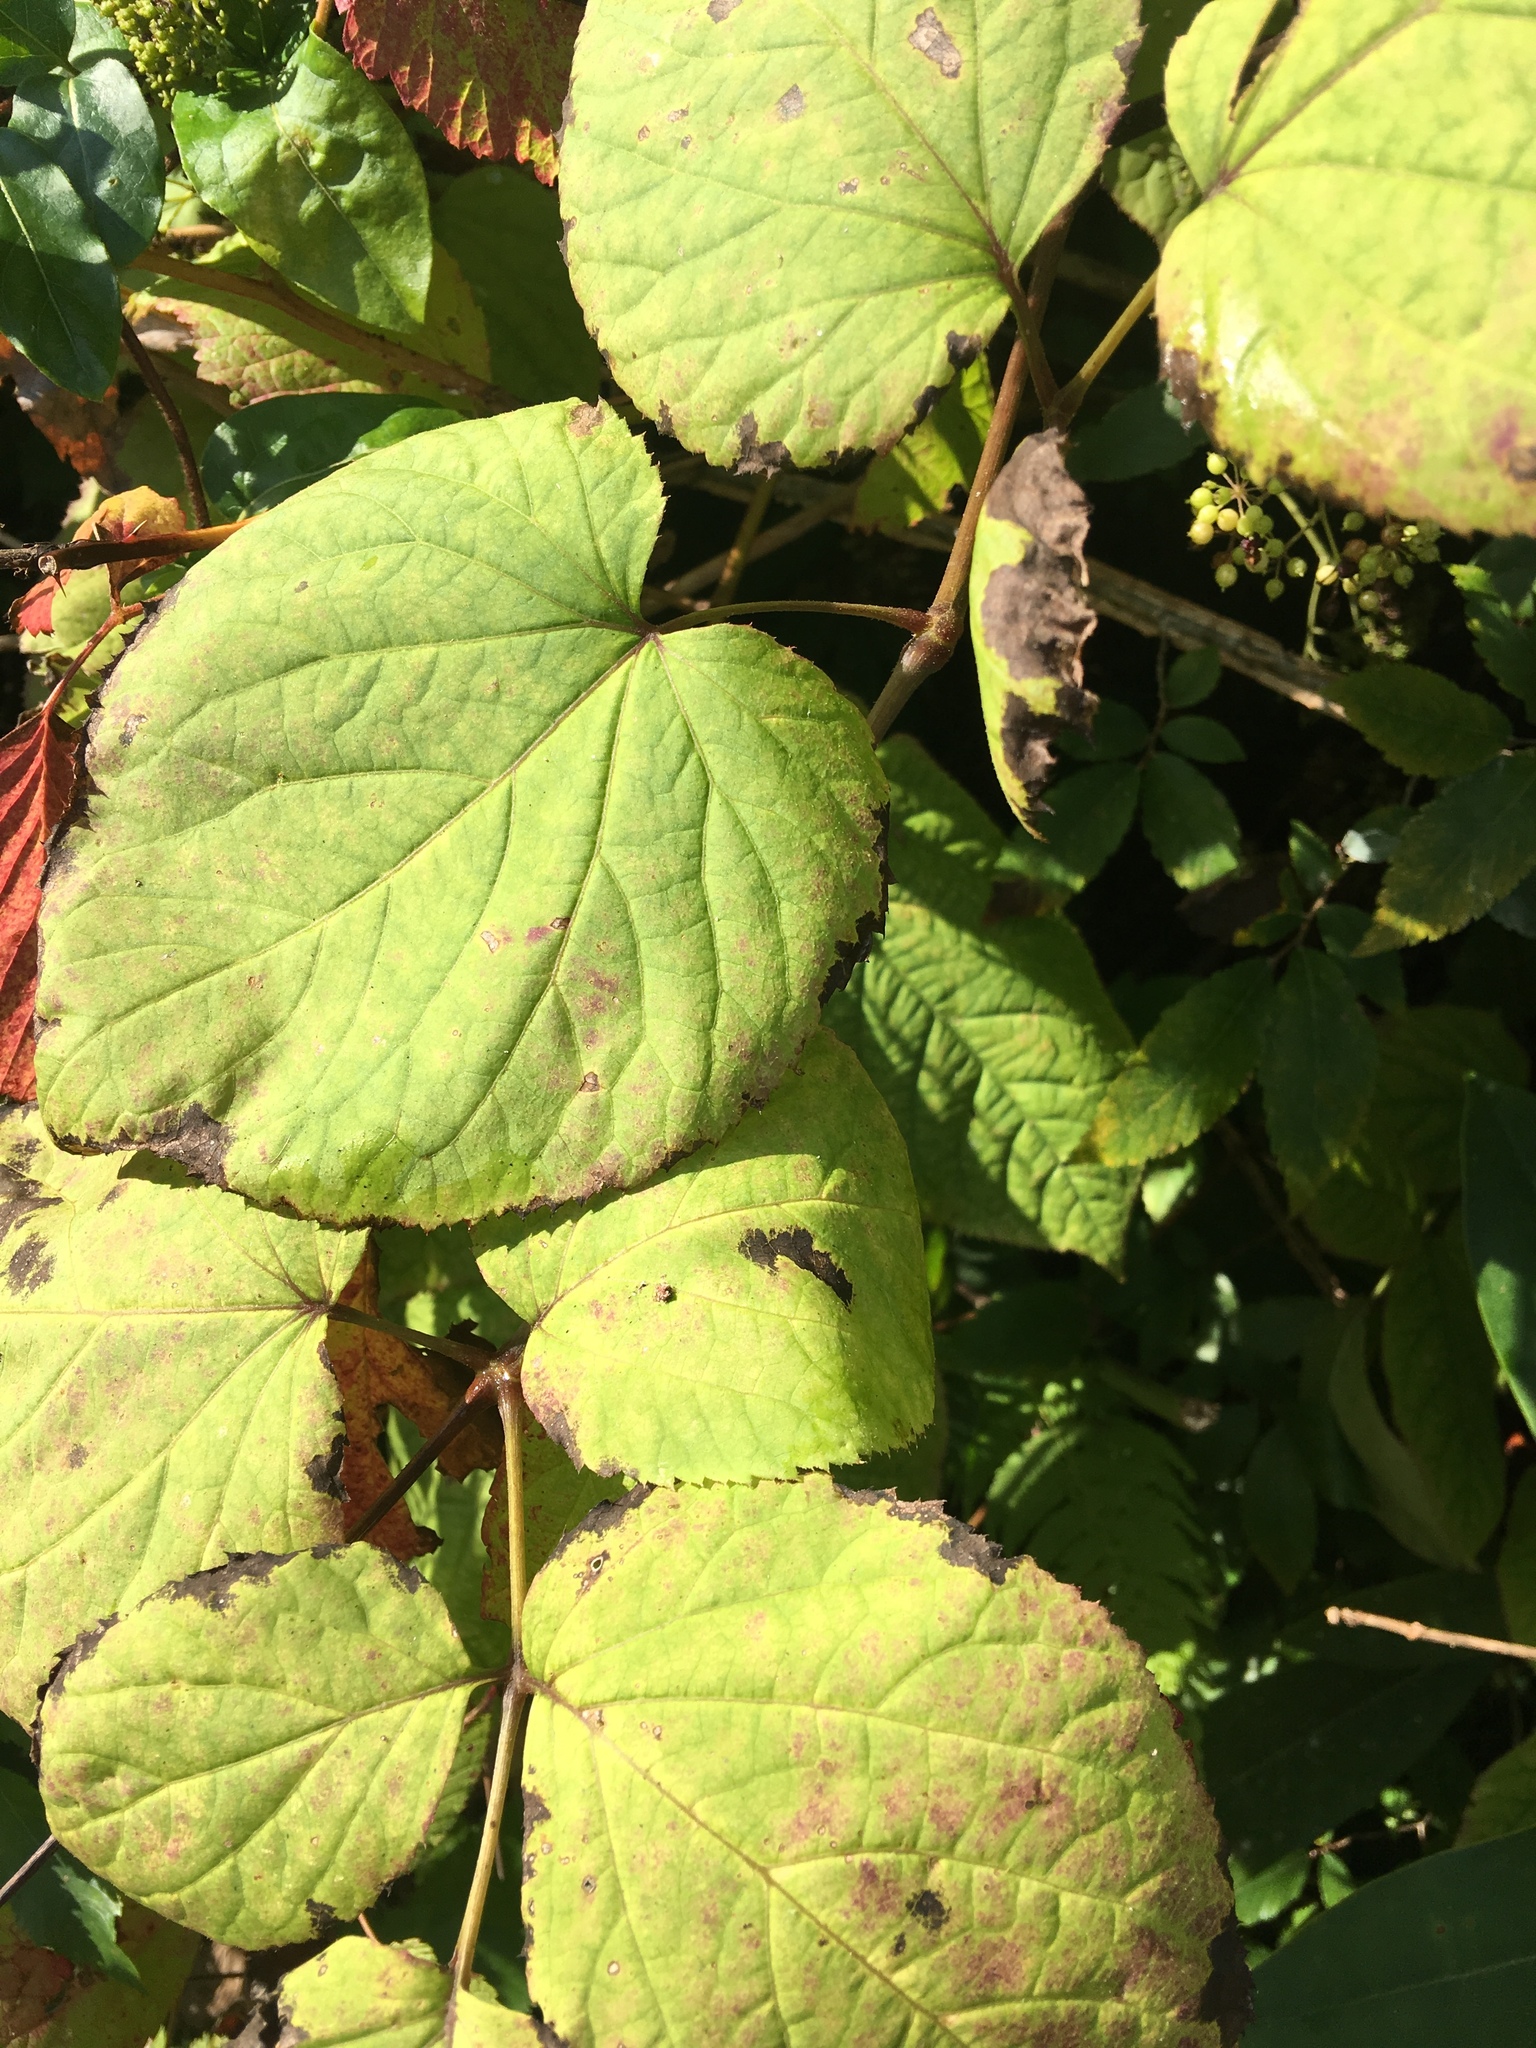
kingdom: Plantae
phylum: Tracheophyta
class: Magnoliopsida
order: Apiales
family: Araliaceae
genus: Aralia
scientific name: Aralia racemosa
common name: American-spikenard
